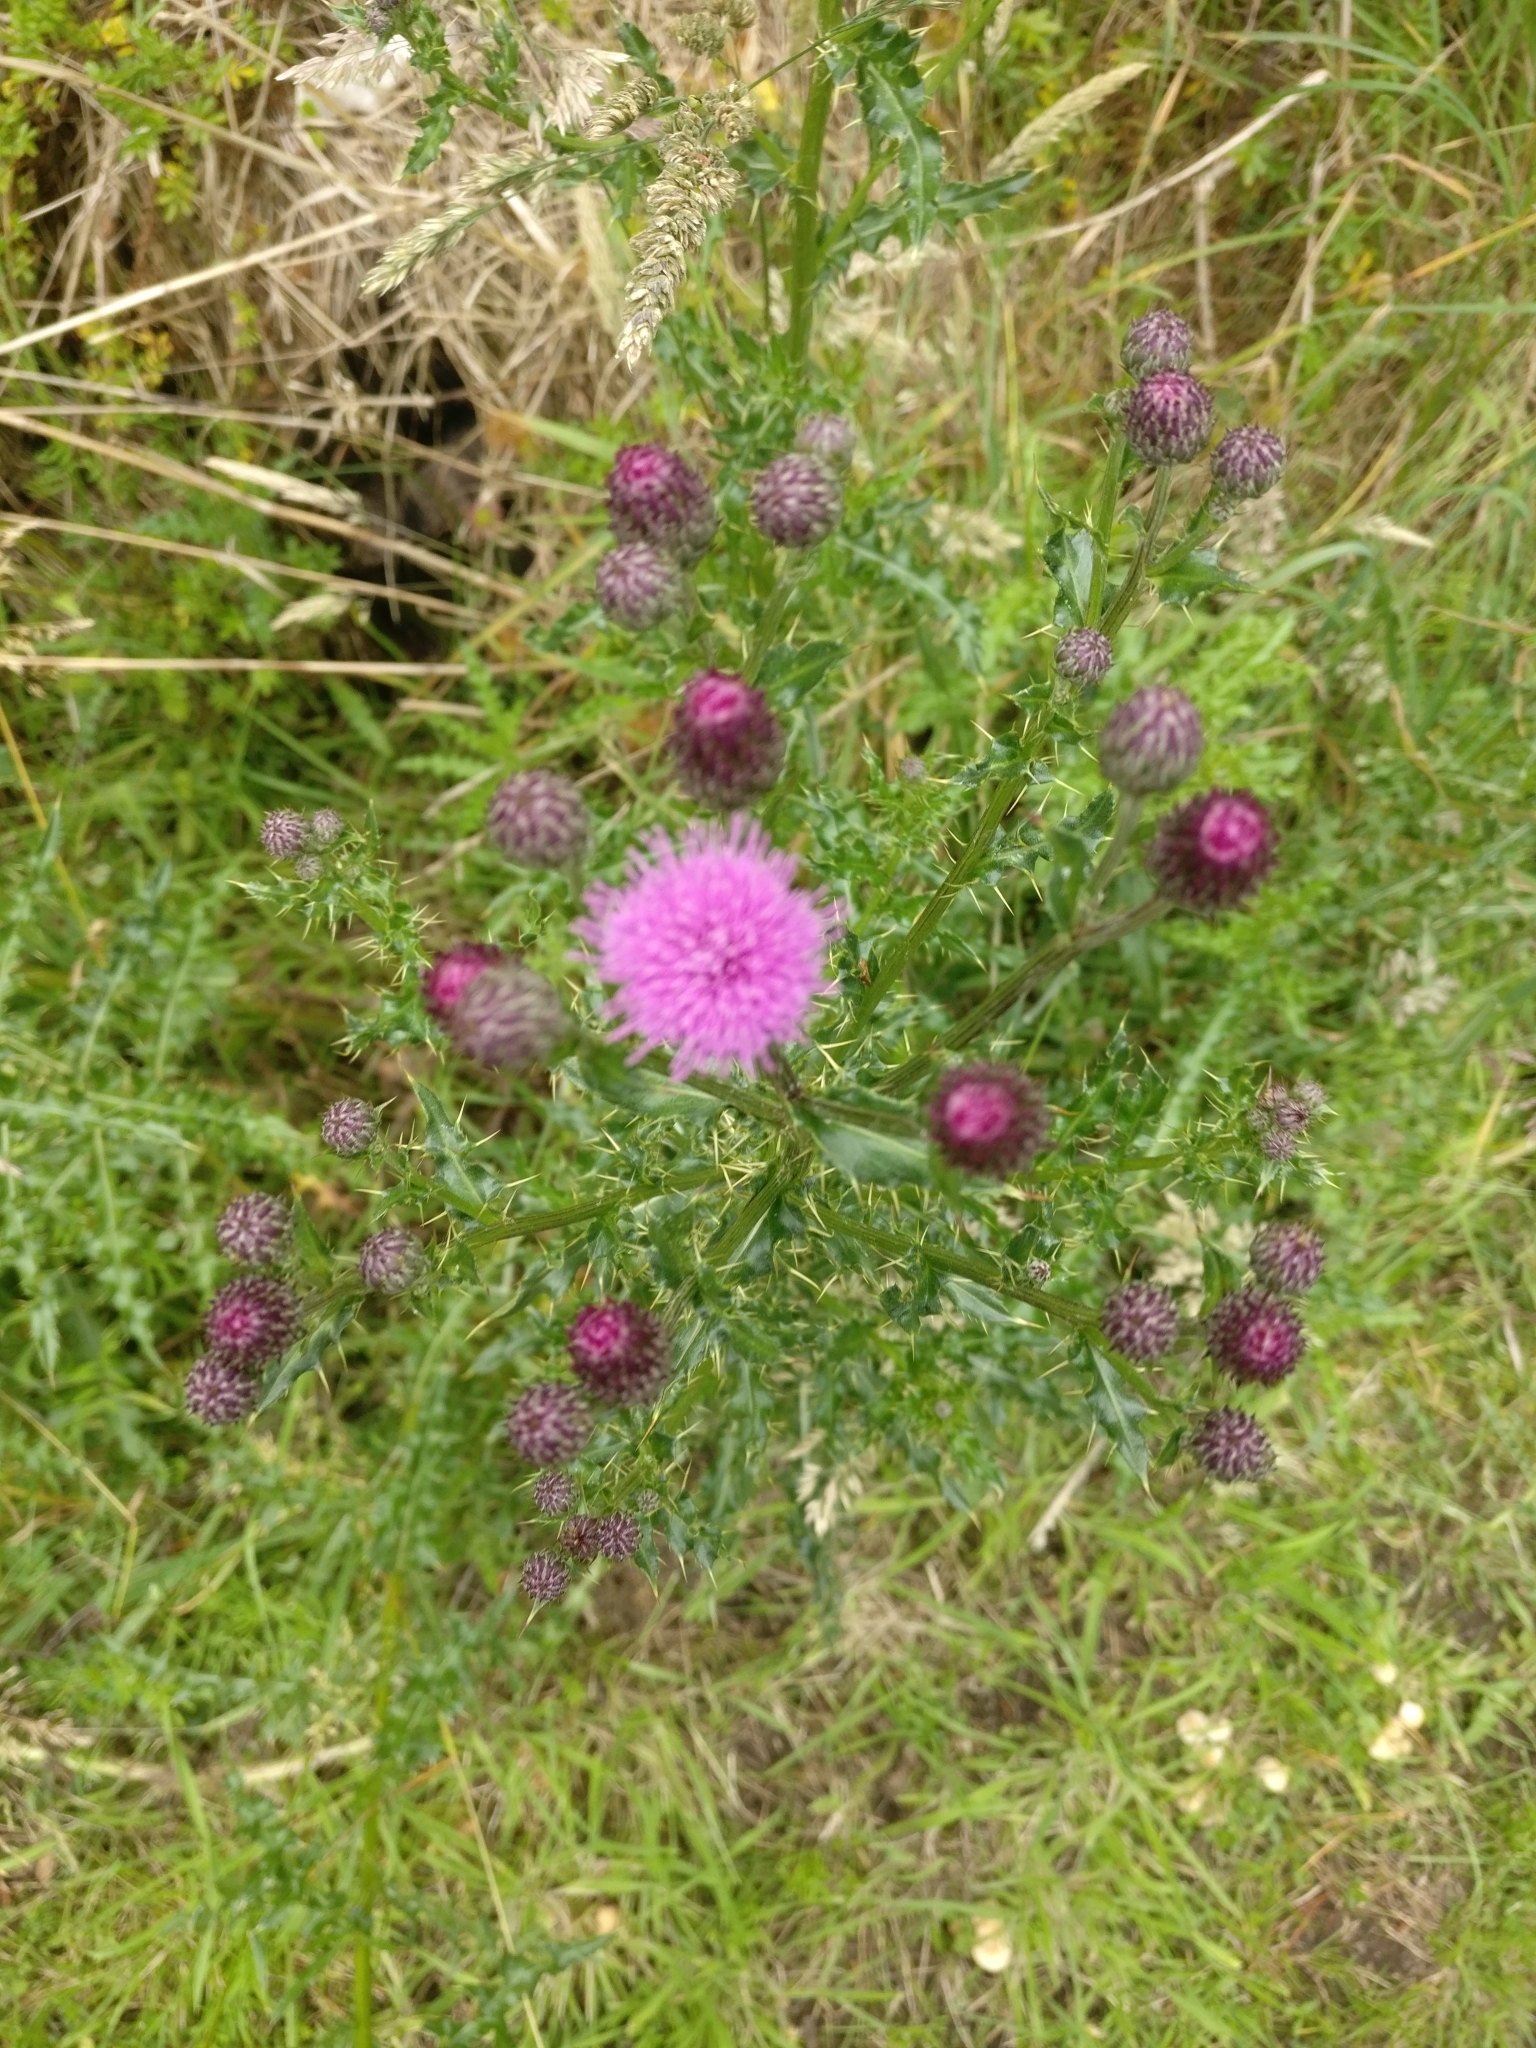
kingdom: Plantae
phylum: Tracheophyta
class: Magnoliopsida
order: Asterales
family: Asteraceae
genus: Cirsium
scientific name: Cirsium arvense
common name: Creeping thistle
